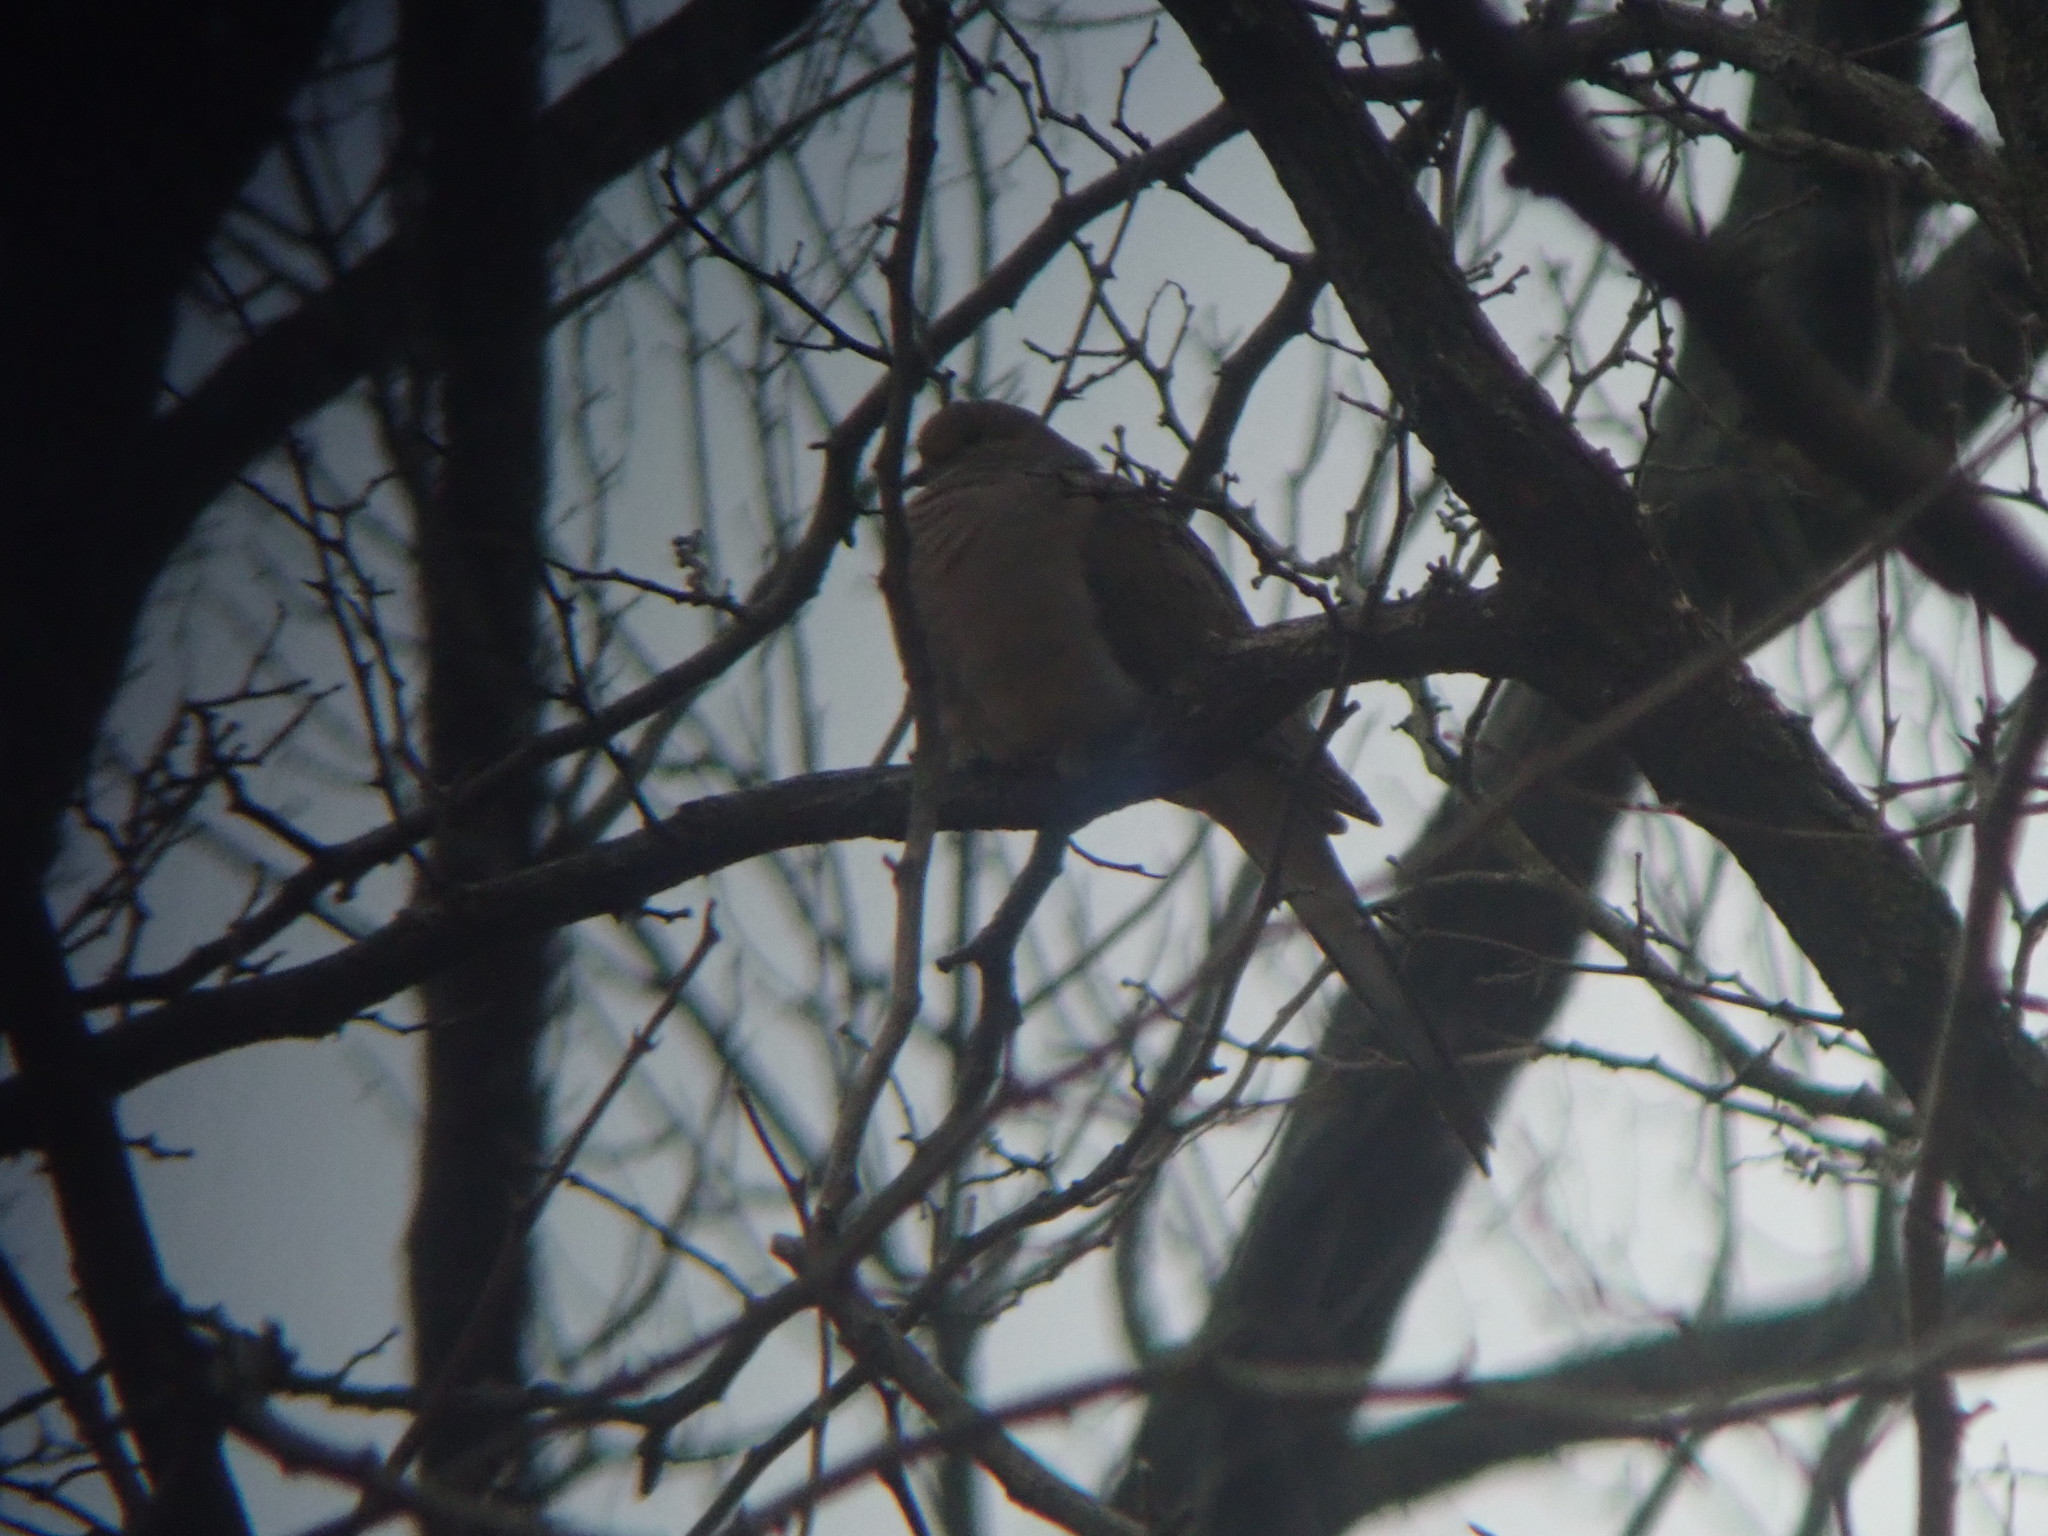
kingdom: Animalia
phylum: Chordata
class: Aves
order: Columbiformes
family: Columbidae
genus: Zenaida
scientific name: Zenaida macroura
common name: Mourning dove
